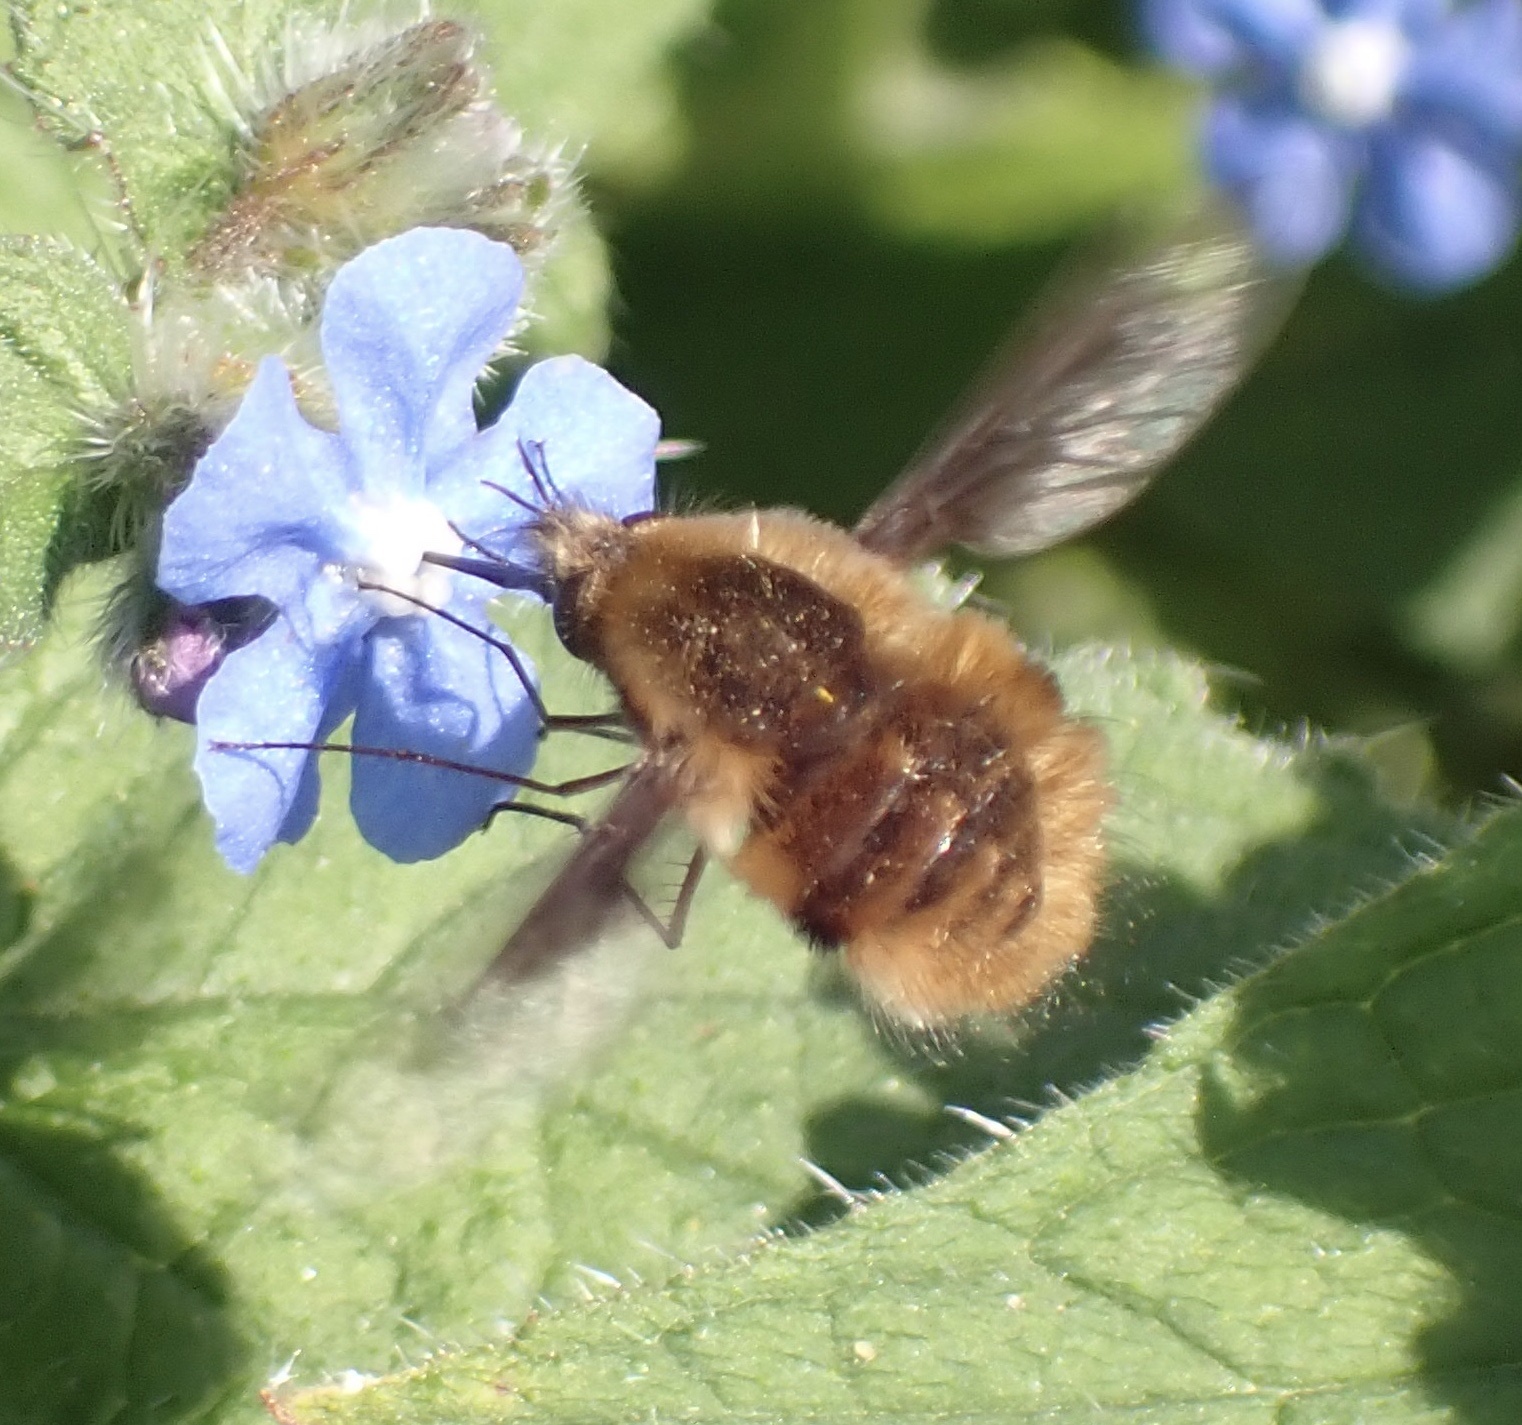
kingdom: Animalia
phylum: Arthropoda
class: Insecta
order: Diptera
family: Bombyliidae
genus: Bombylius
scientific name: Bombylius major
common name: Bee fly
